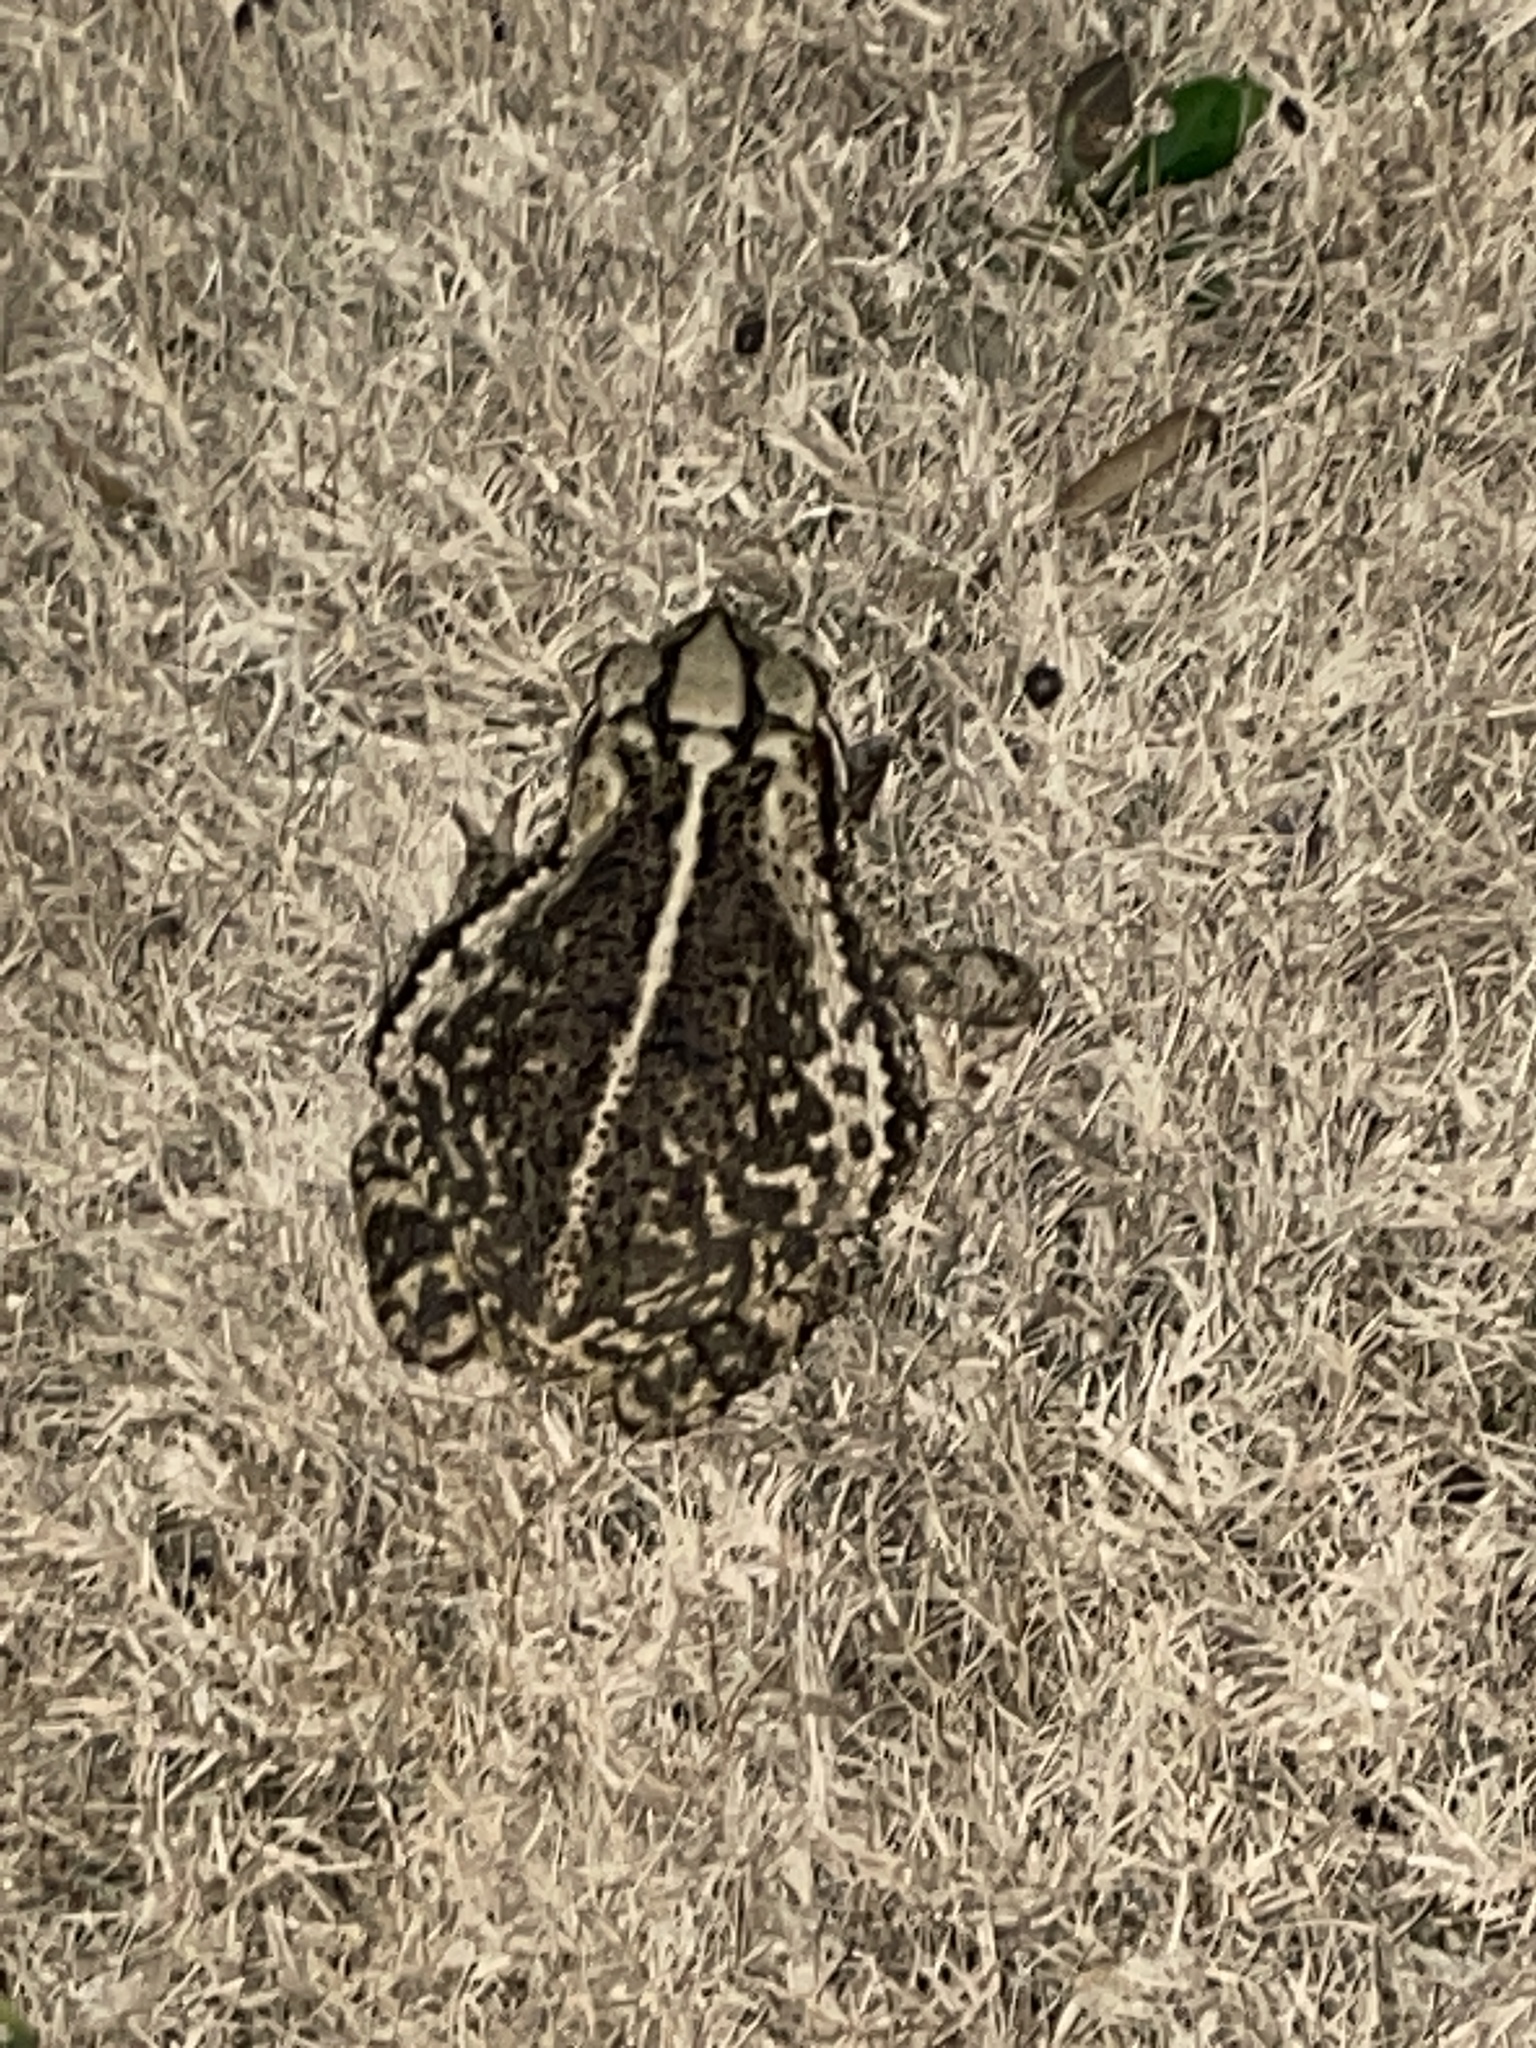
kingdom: Animalia
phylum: Chordata
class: Amphibia
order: Anura
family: Bufonidae
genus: Incilius
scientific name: Incilius nebulifer
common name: Gulf coast toad
